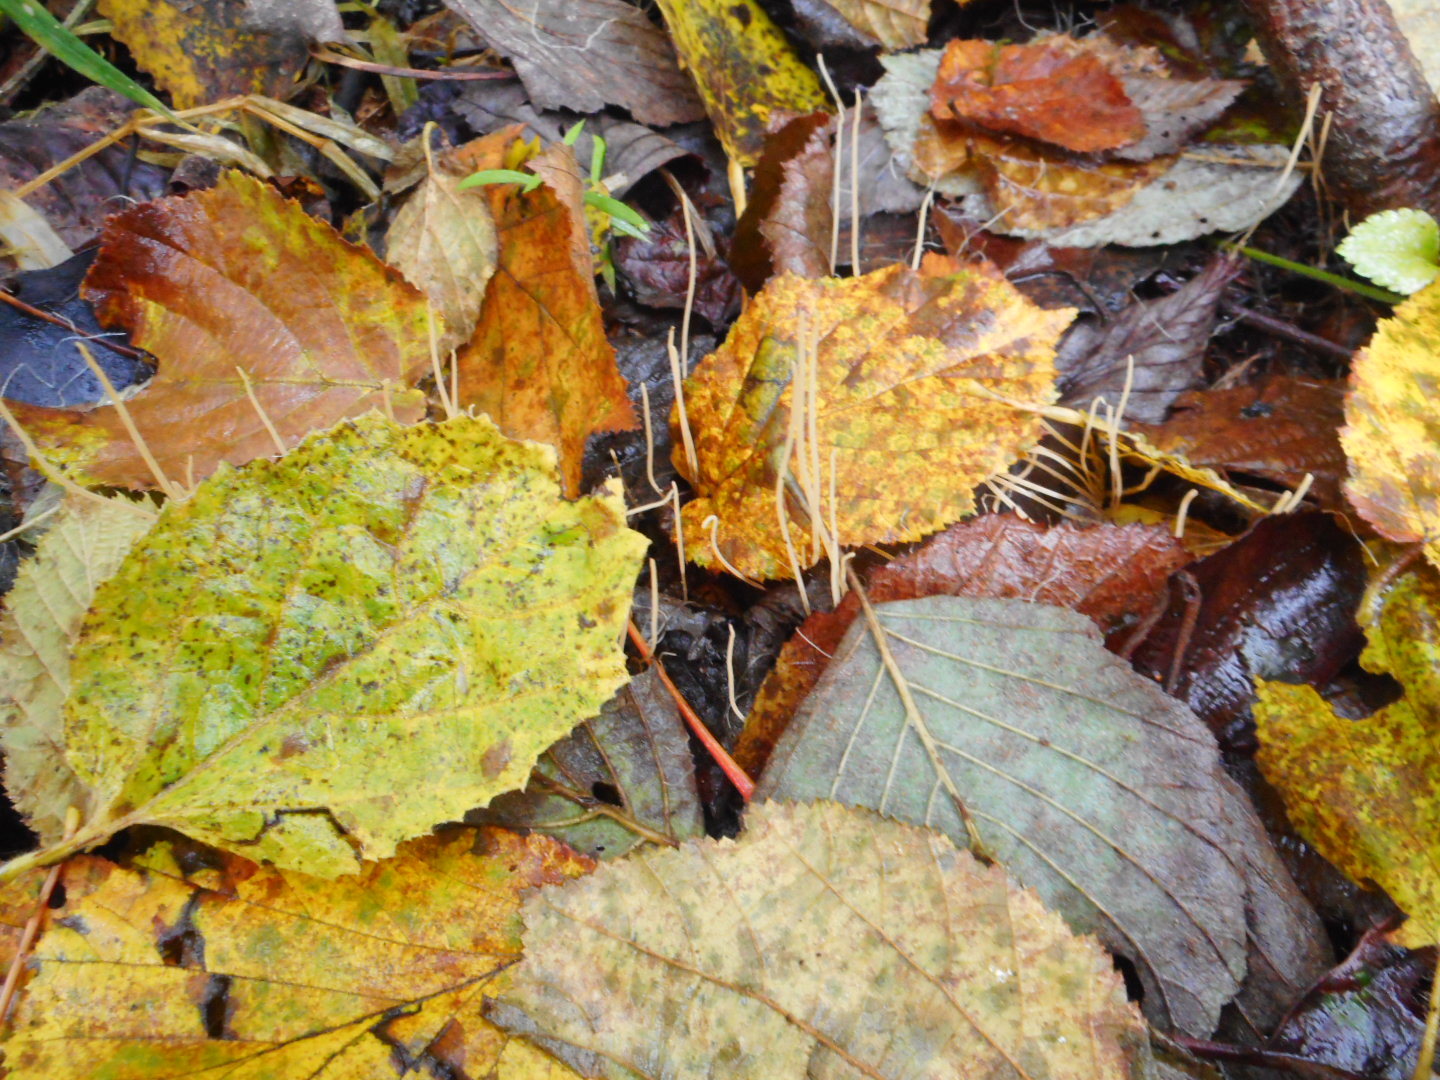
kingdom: Fungi
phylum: Basidiomycota
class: Agaricomycetes
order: Agaricales
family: Typhulaceae
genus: Typhula
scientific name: Typhula juncea
